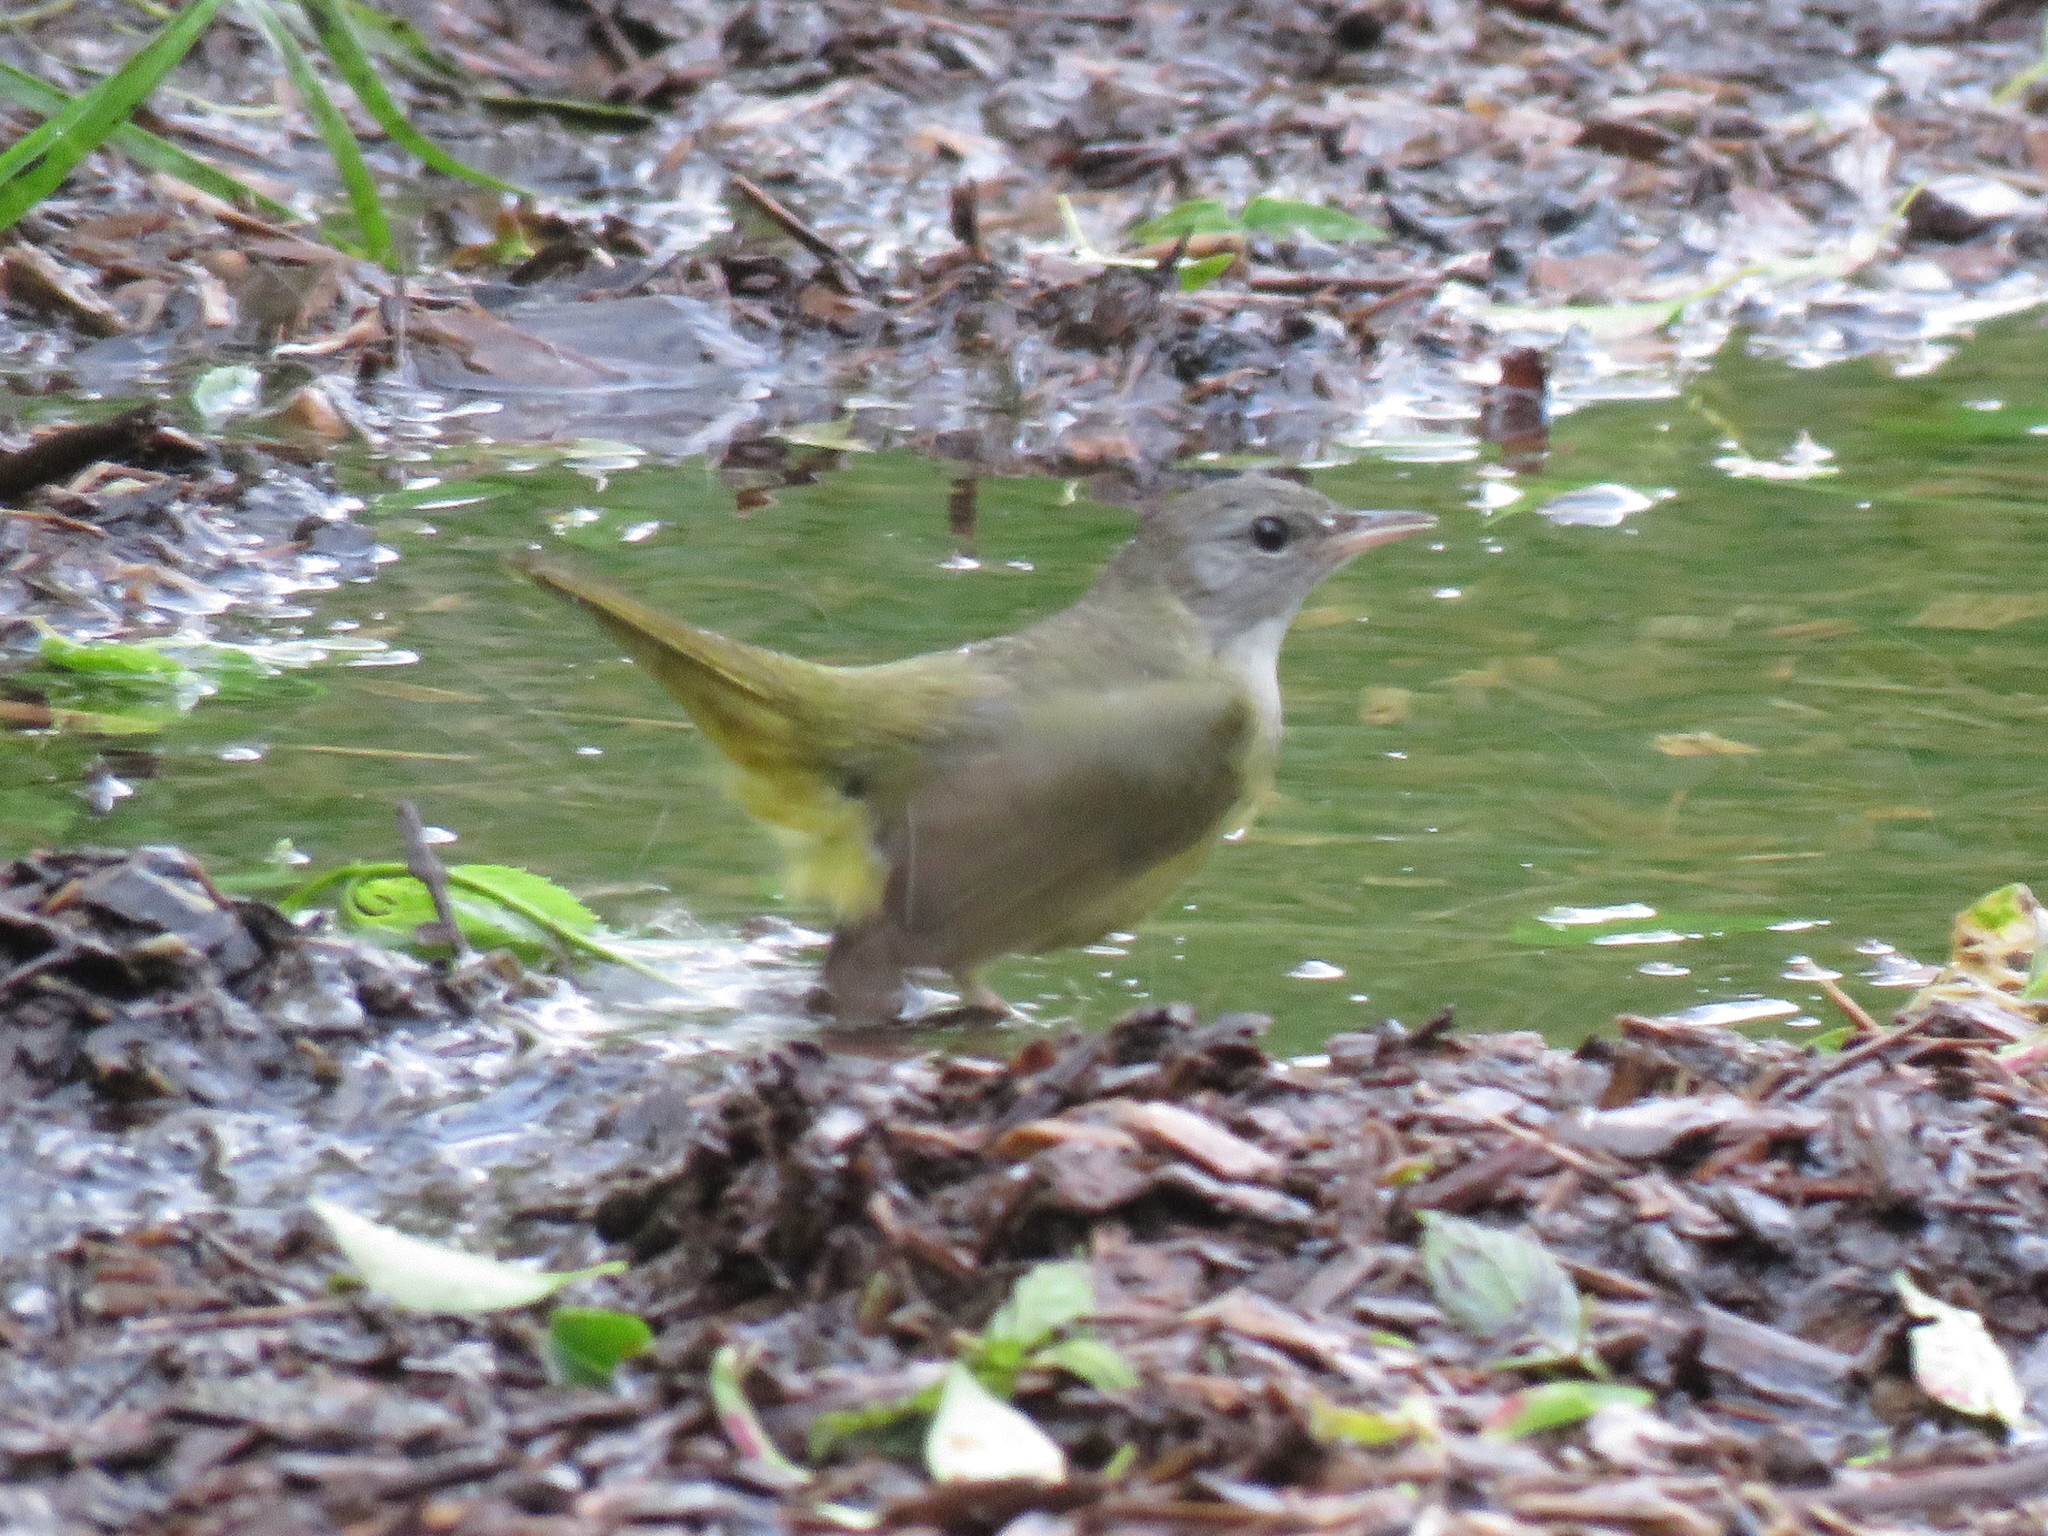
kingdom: Animalia
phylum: Chordata
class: Aves
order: Passeriformes
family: Parulidae
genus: Geothlypis
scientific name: Geothlypis philadelphia
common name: Mourning warbler
